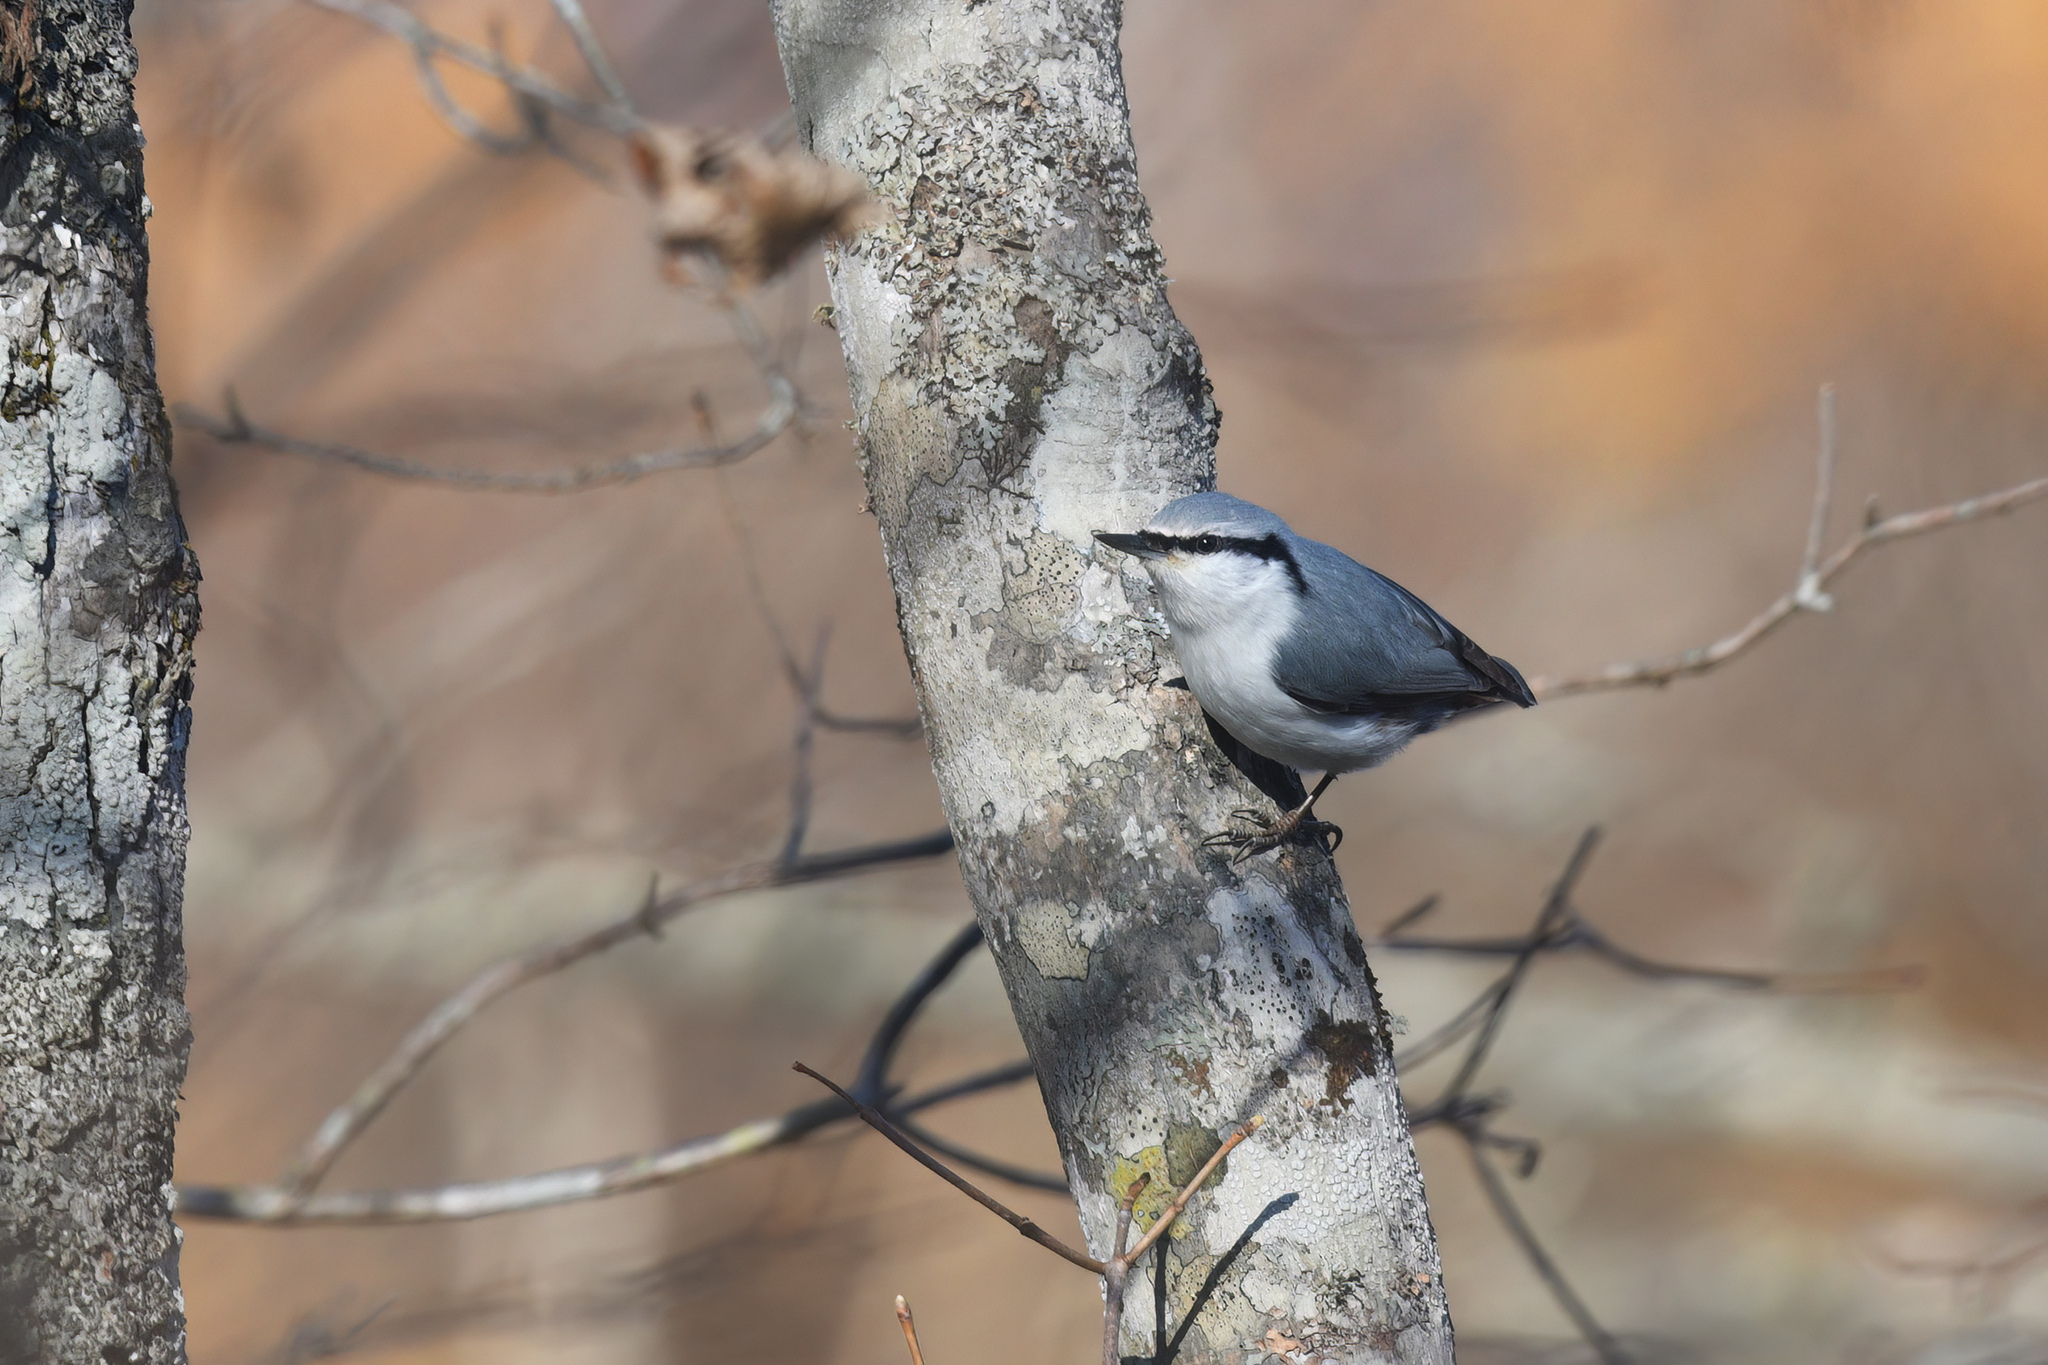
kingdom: Animalia
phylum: Chordata
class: Aves
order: Passeriformes
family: Sittidae
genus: Sitta
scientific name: Sitta europaea
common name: Eurasian nuthatch
